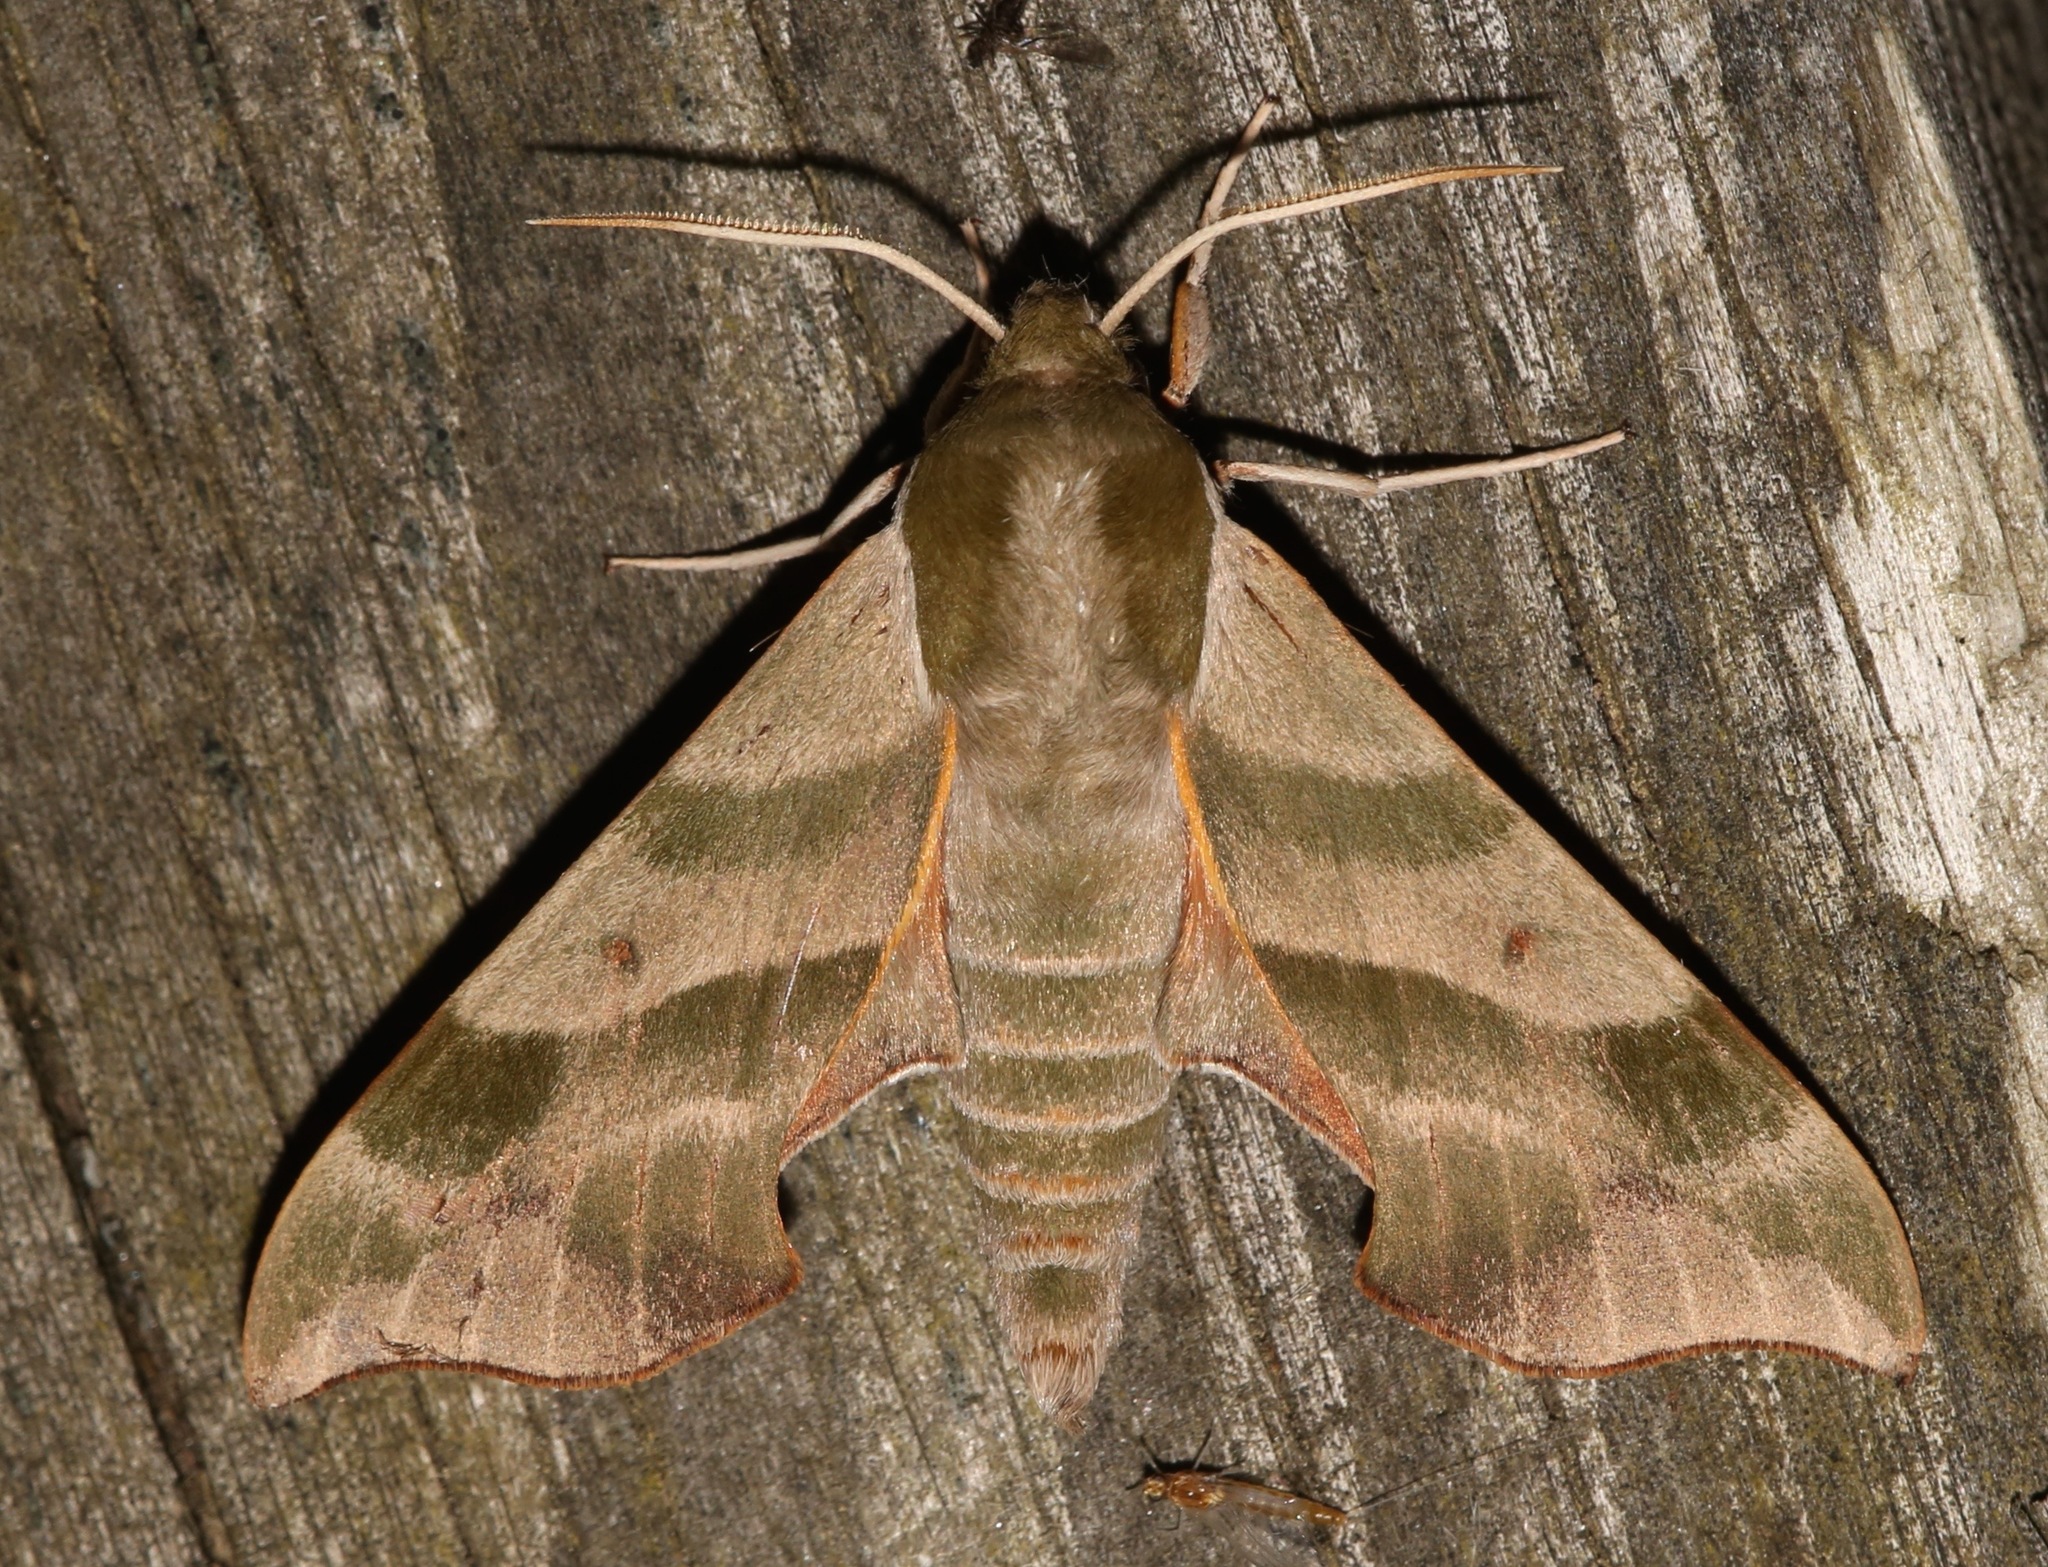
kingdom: Animalia
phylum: Arthropoda
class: Insecta
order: Lepidoptera
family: Sphingidae
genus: Darapsa
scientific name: Darapsa myron
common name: Hog sphinx
